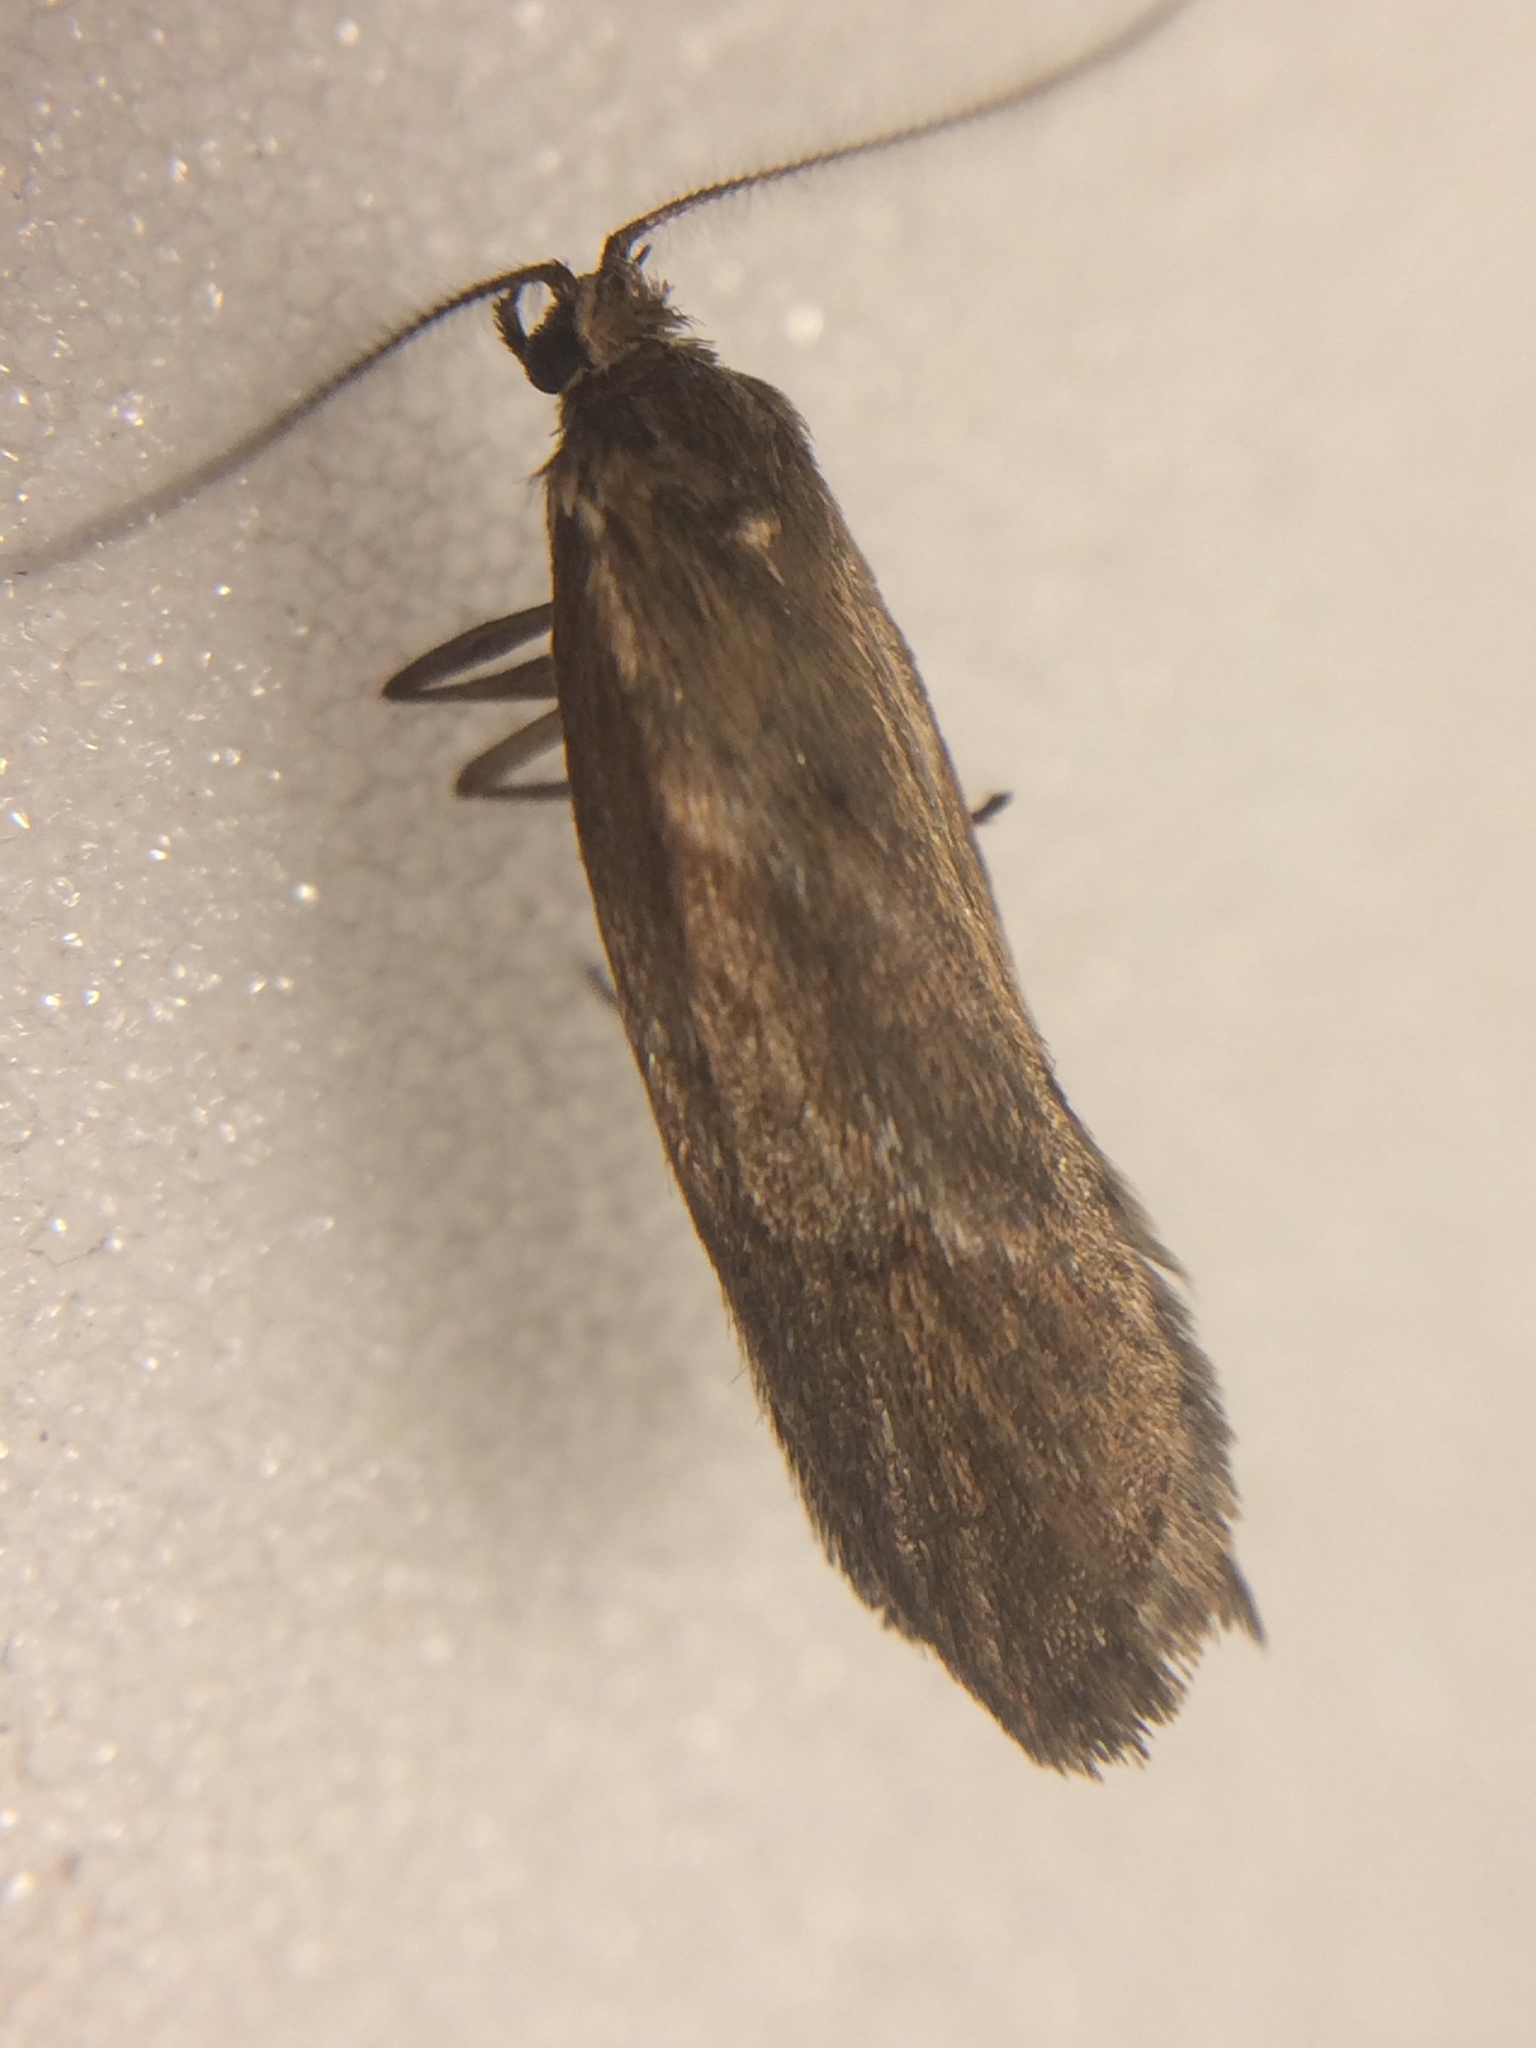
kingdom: Animalia
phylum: Arthropoda
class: Insecta
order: Lepidoptera
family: Lypusidae
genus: Diurnea
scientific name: Diurnea lipsiella
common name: November tubic
